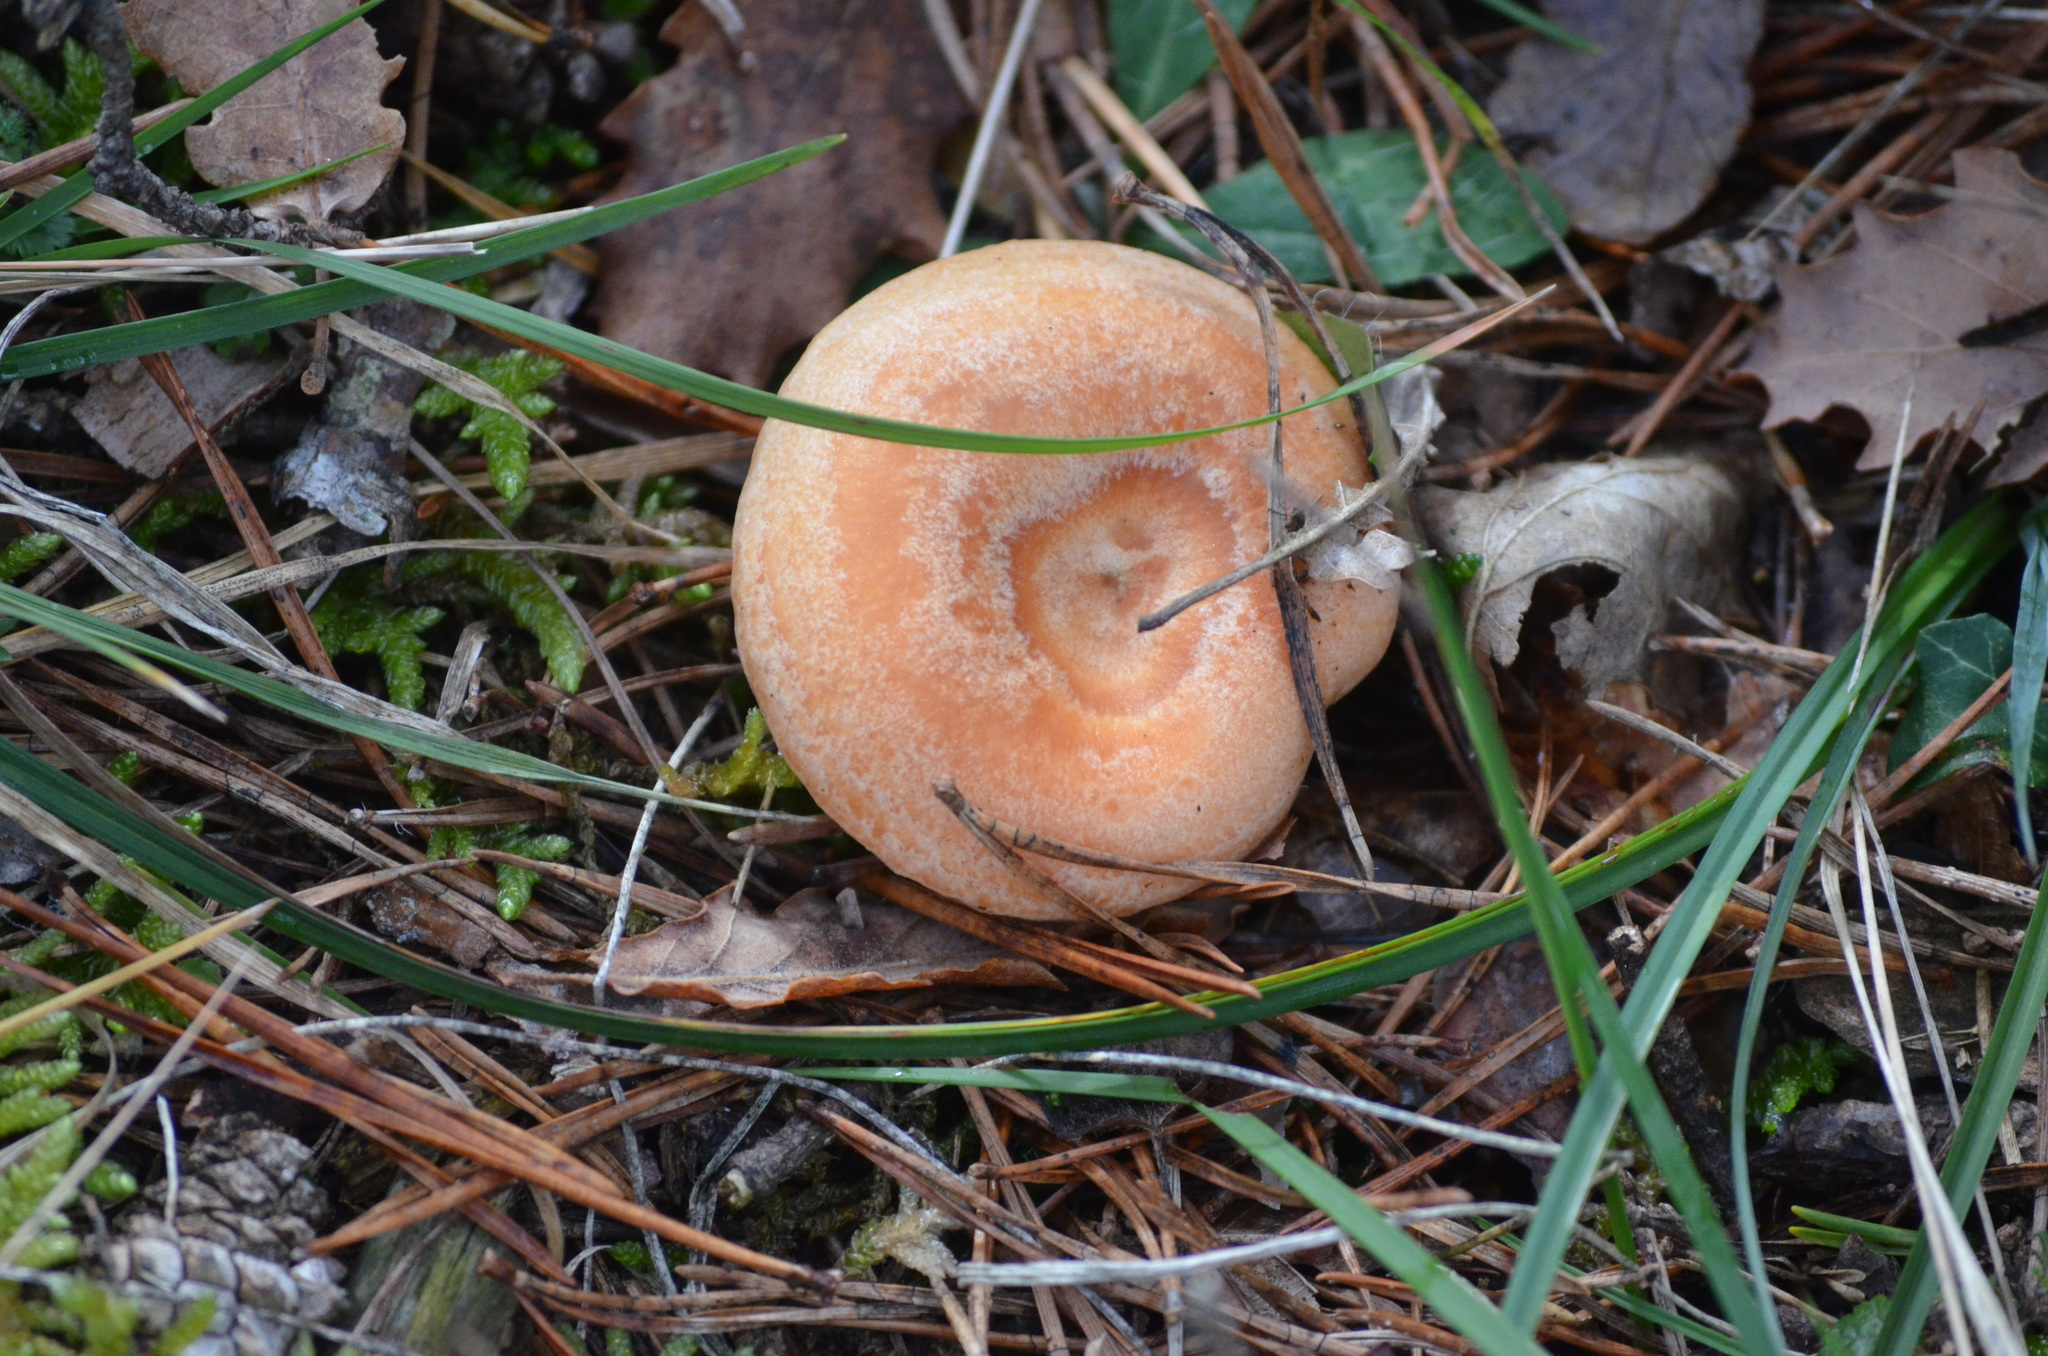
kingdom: Fungi
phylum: Basidiomycota
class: Agaricomycetes
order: Russulales
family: Russulaceae
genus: Lactarius
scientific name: Lactarius deliciosus
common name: Saffron milk-cap
